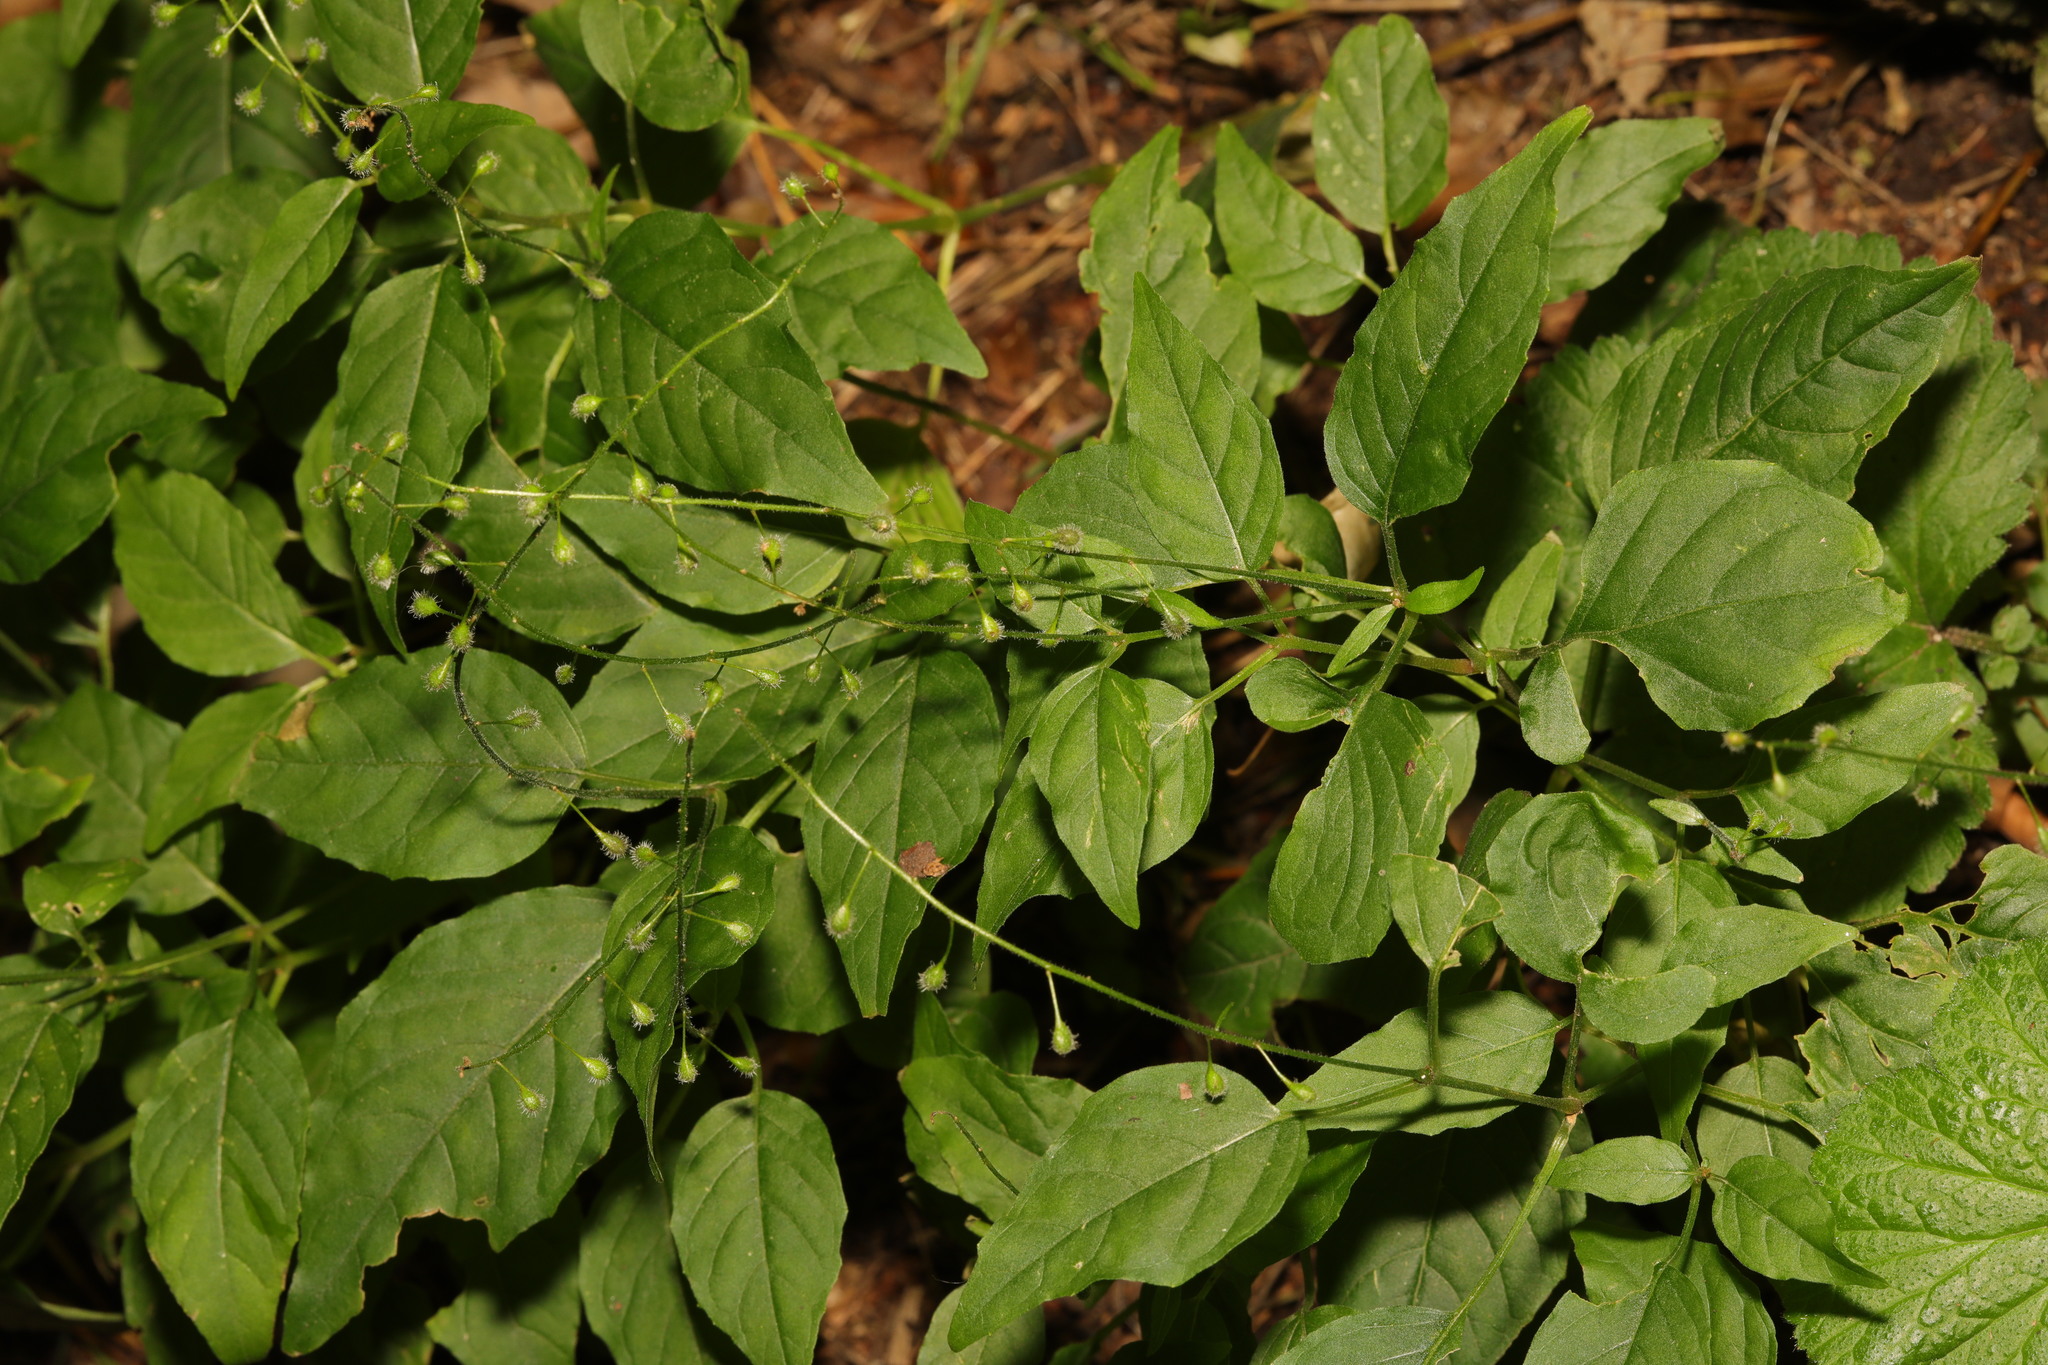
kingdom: Plantae
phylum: Tracheophyta
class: Magnoliopsida
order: Myrtales
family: Onagraceae
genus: Circaea
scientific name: Circaea lutetiana
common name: Enchanter's-nightshade
